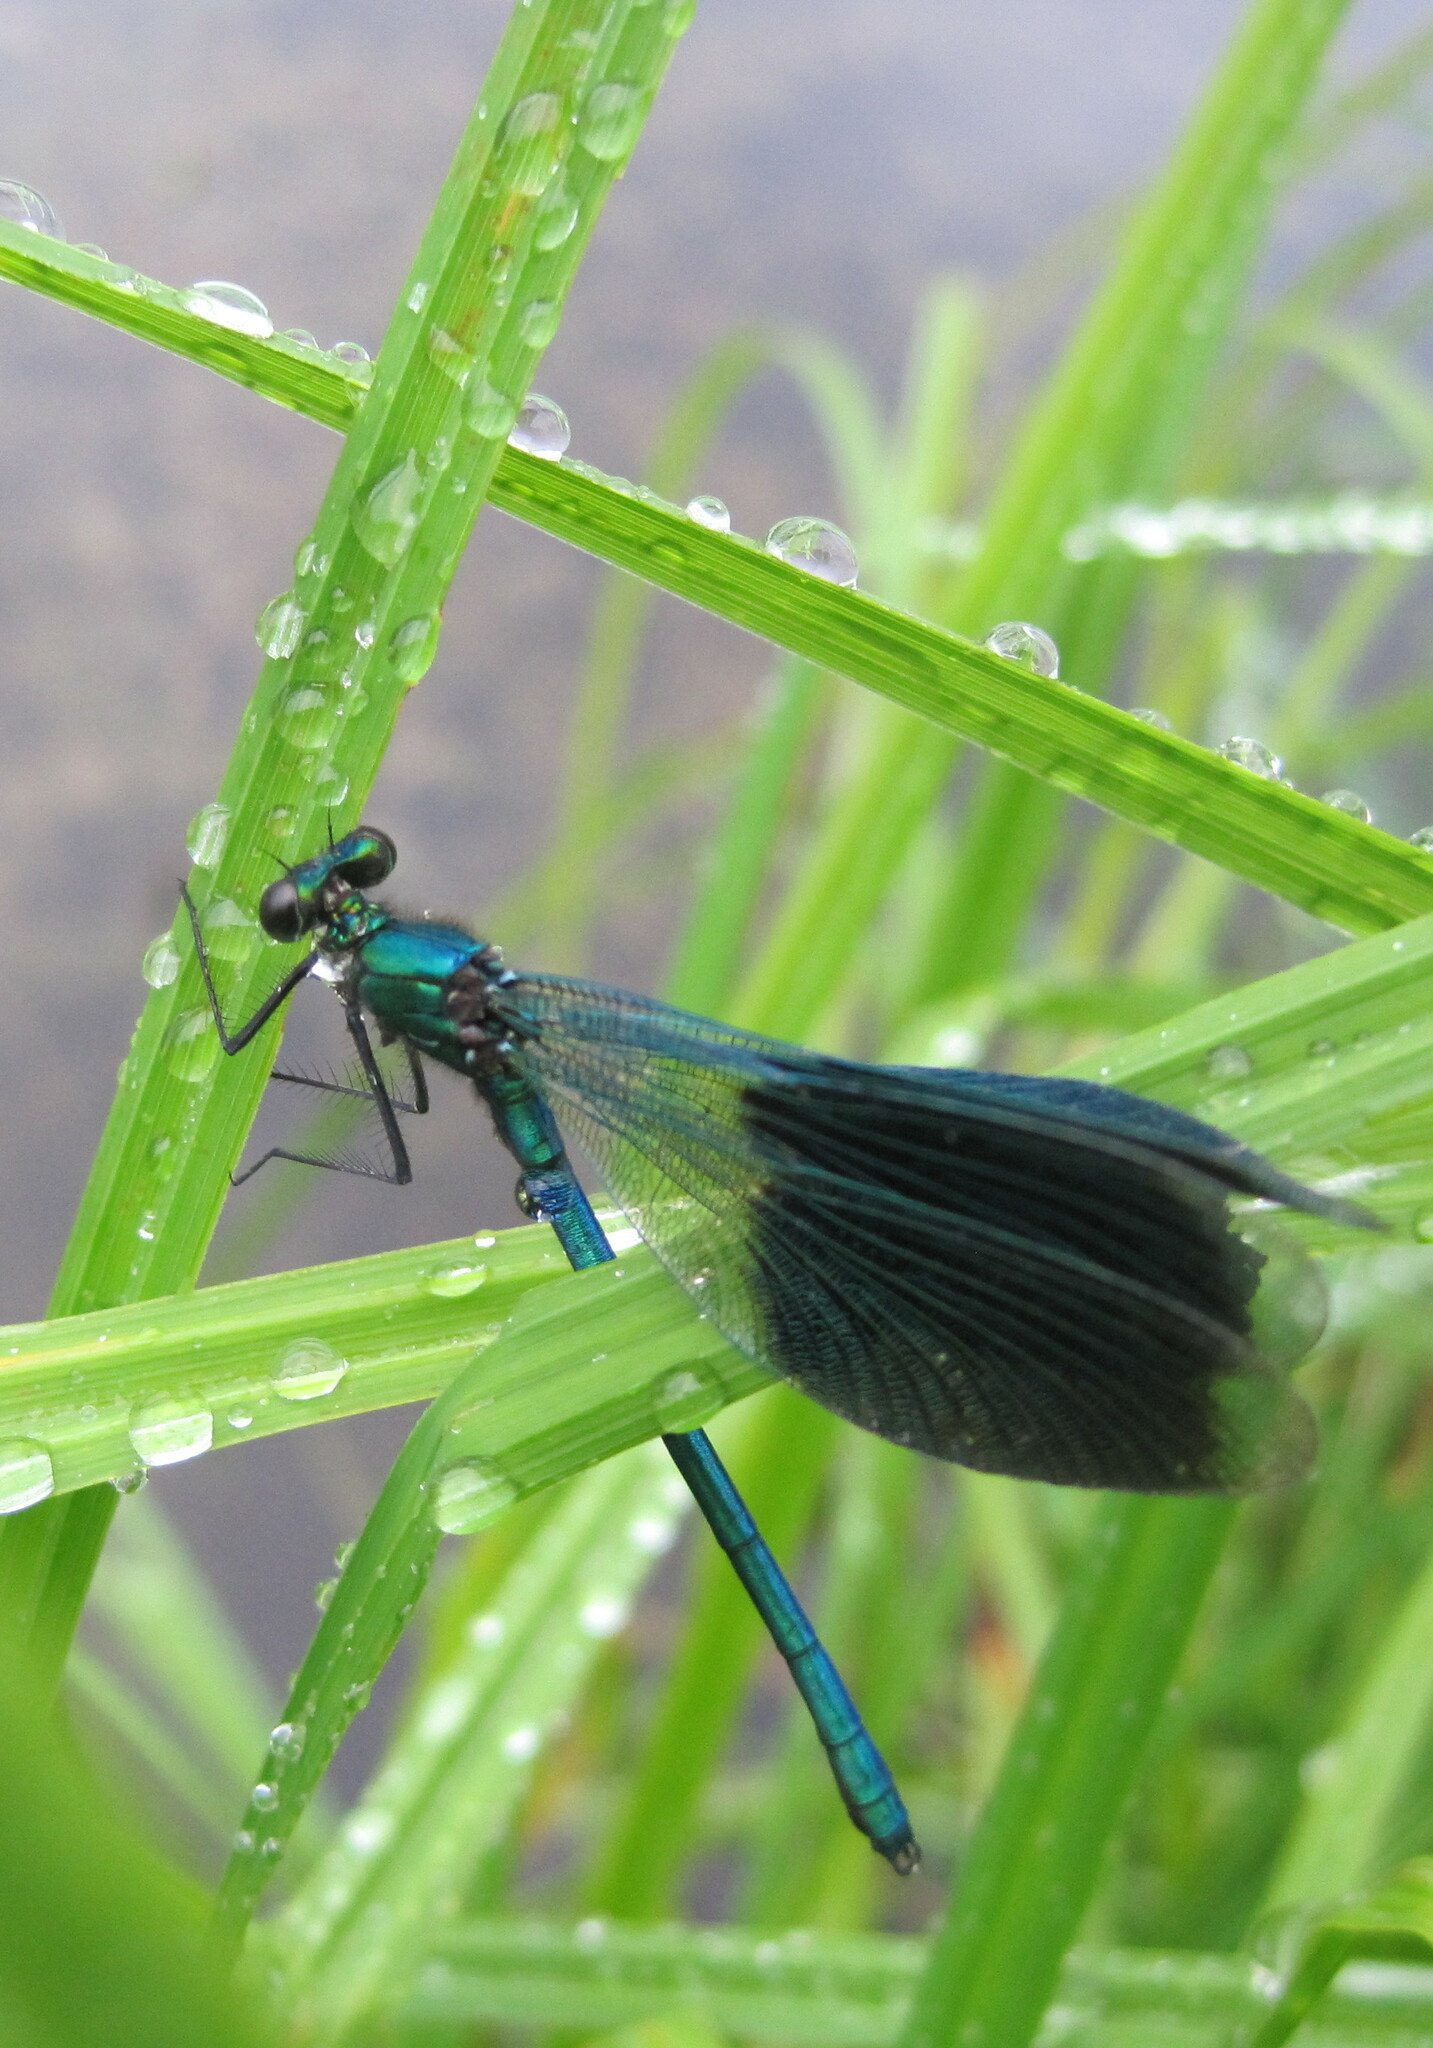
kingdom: Animalia
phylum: Arthropoda
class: Insecta
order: Odonata
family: Calopterygidae
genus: Calopteryx
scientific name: Calopteryx splendens
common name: Banded demoiselle
